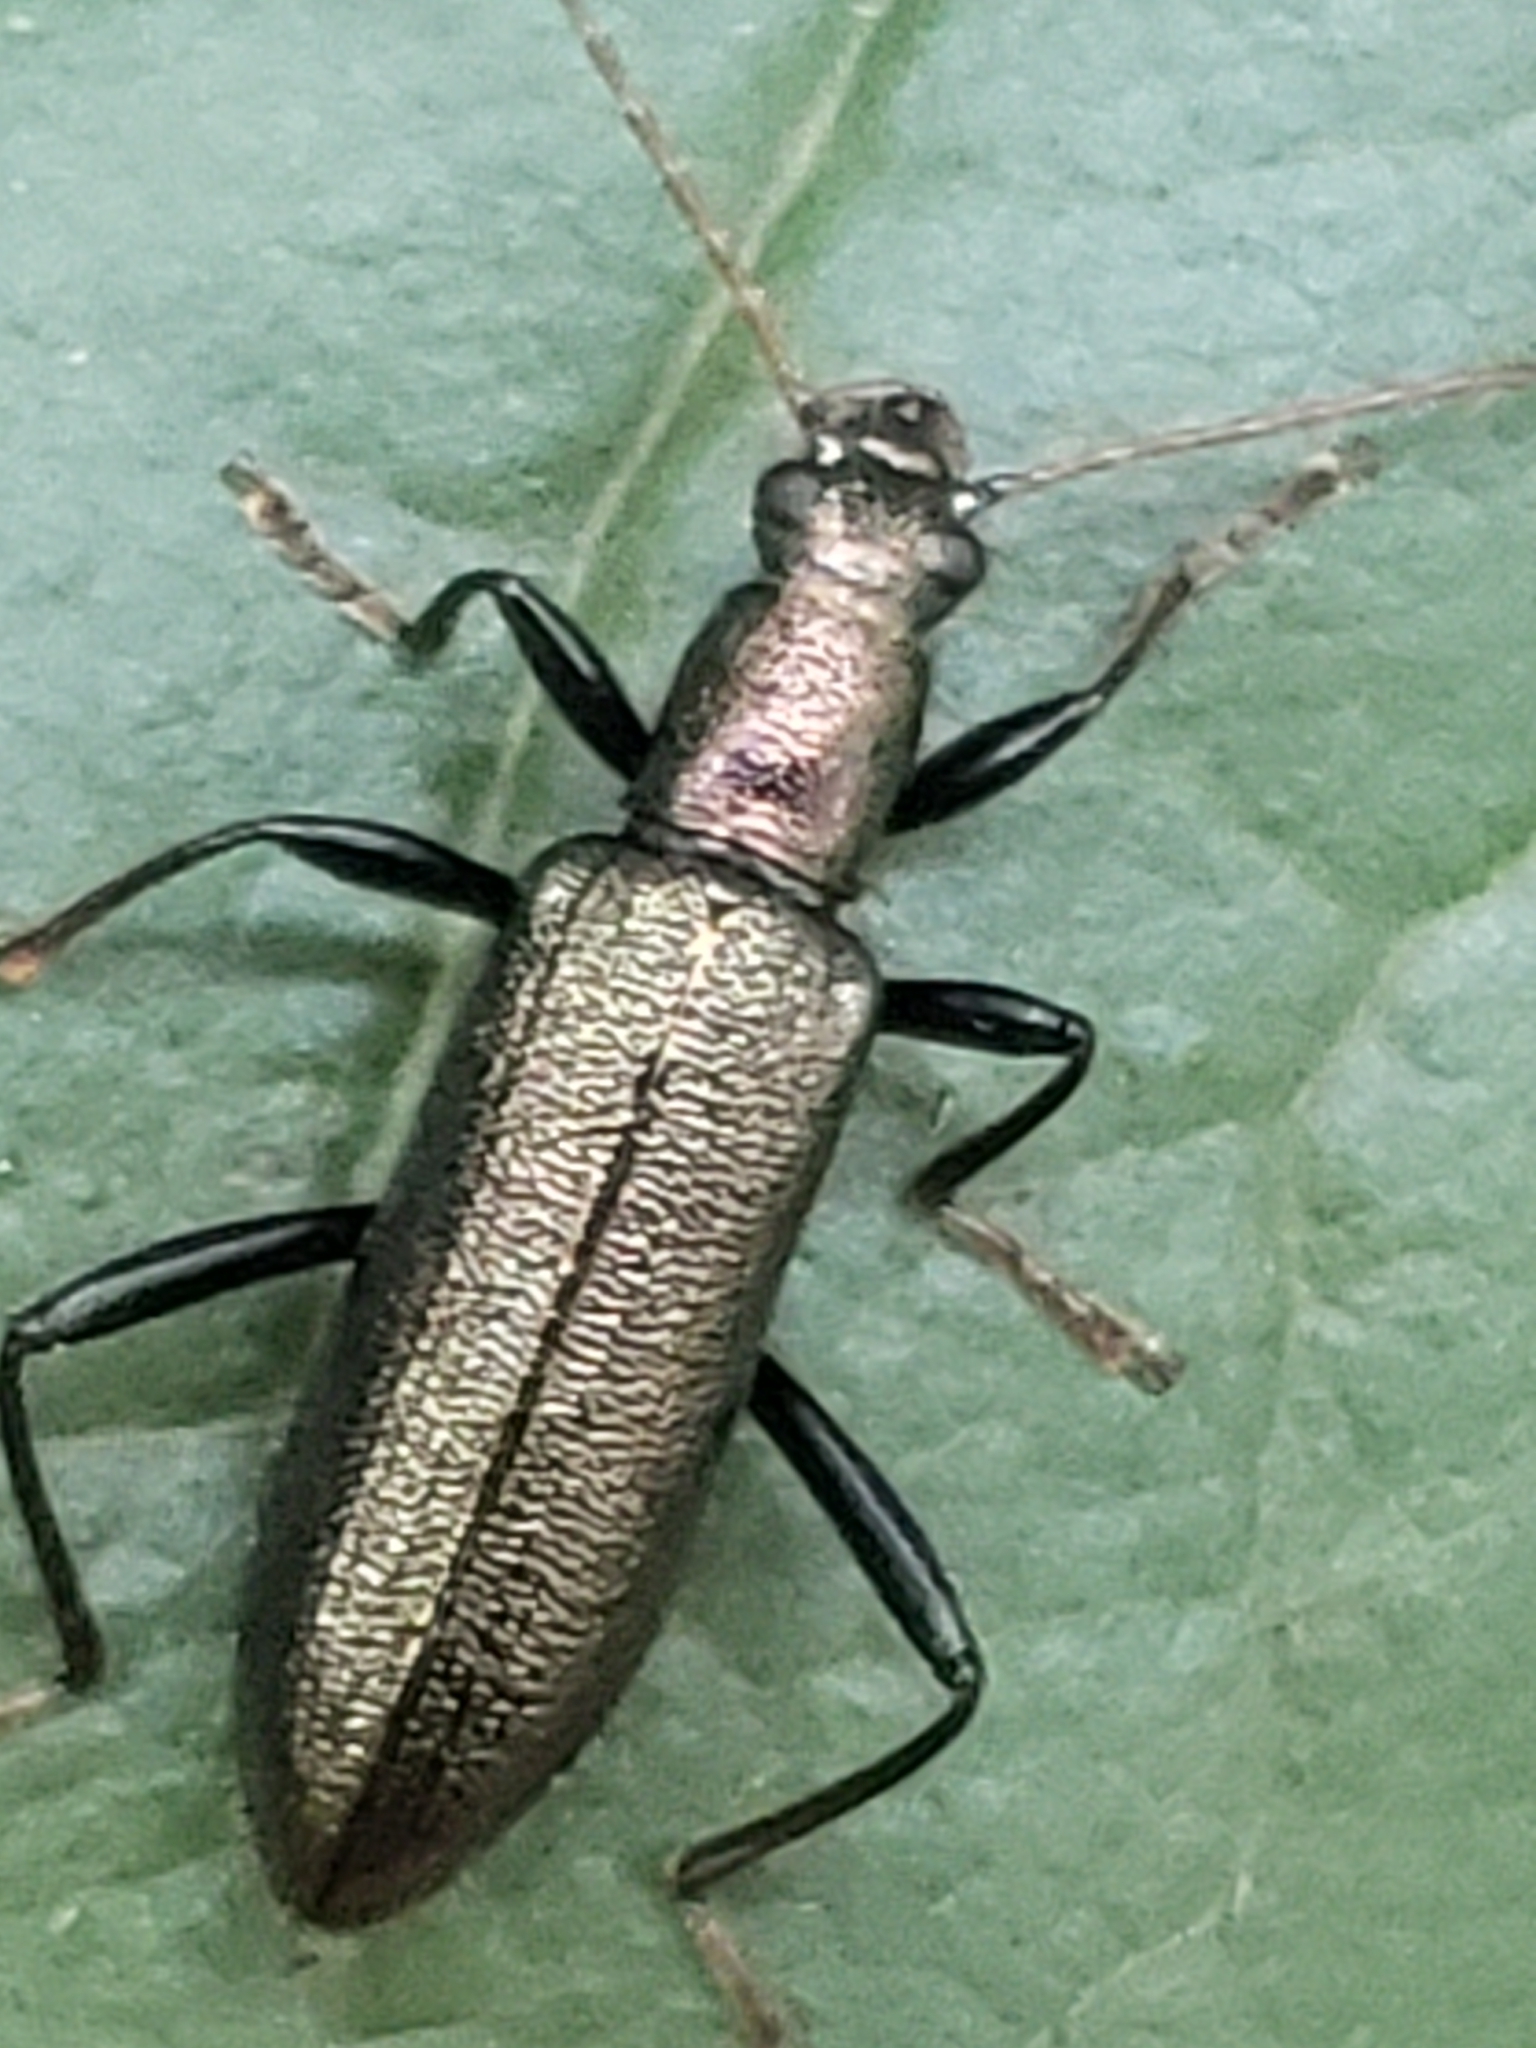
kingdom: Animalia
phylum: Arthropoda
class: Insecta
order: Coleoptera
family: Tenebrionidae
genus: Arthromacra
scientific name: Arthromacra aenea
